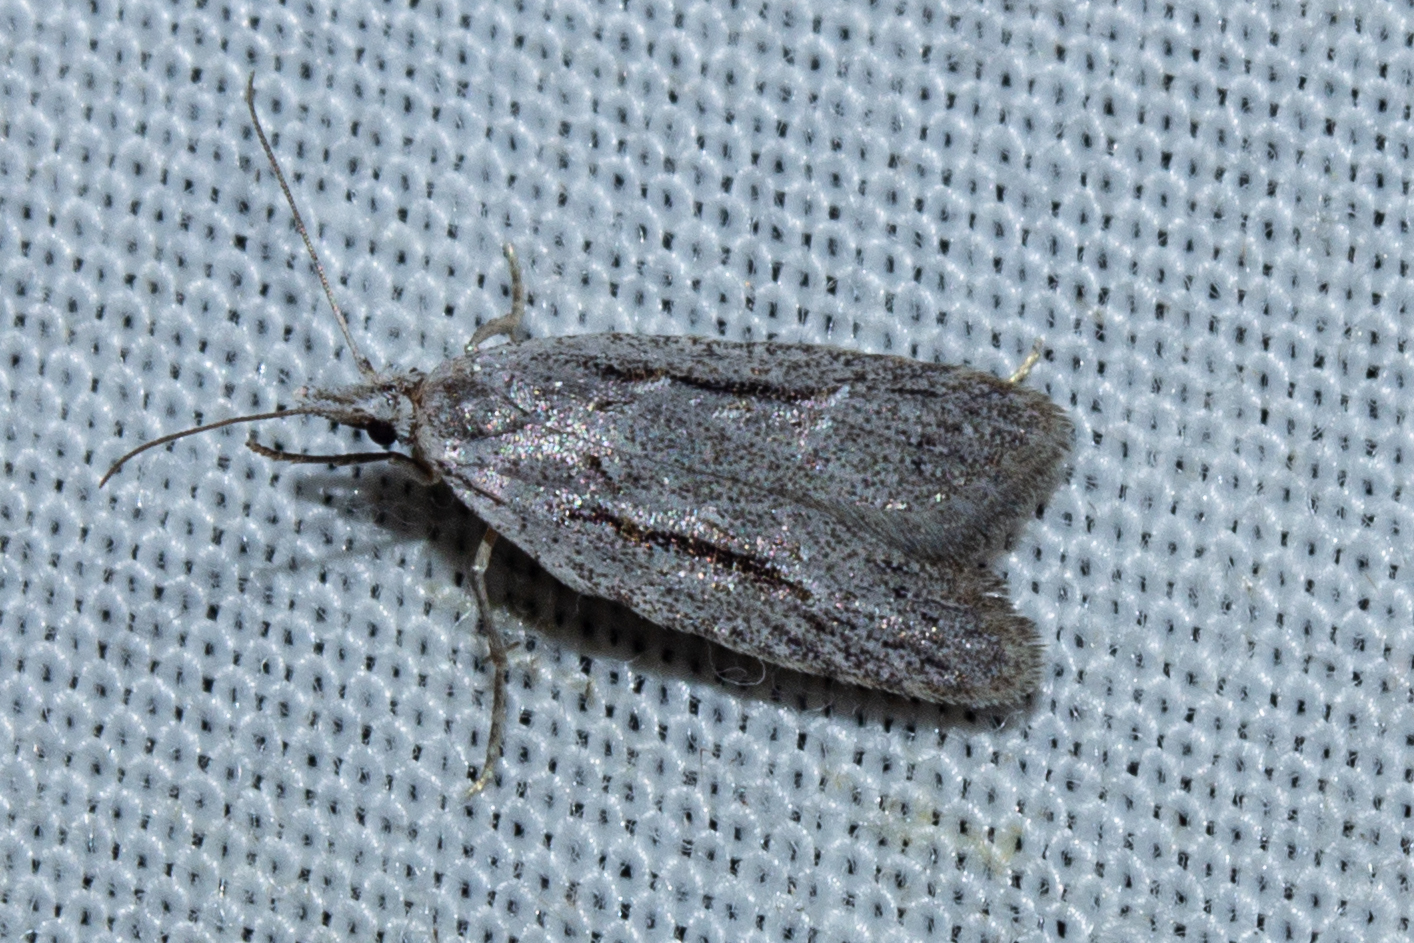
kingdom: Animalia
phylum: Arthropoda
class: Insecta
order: Lepidoptera
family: Carposinidae
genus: Carposina
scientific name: Carposina
